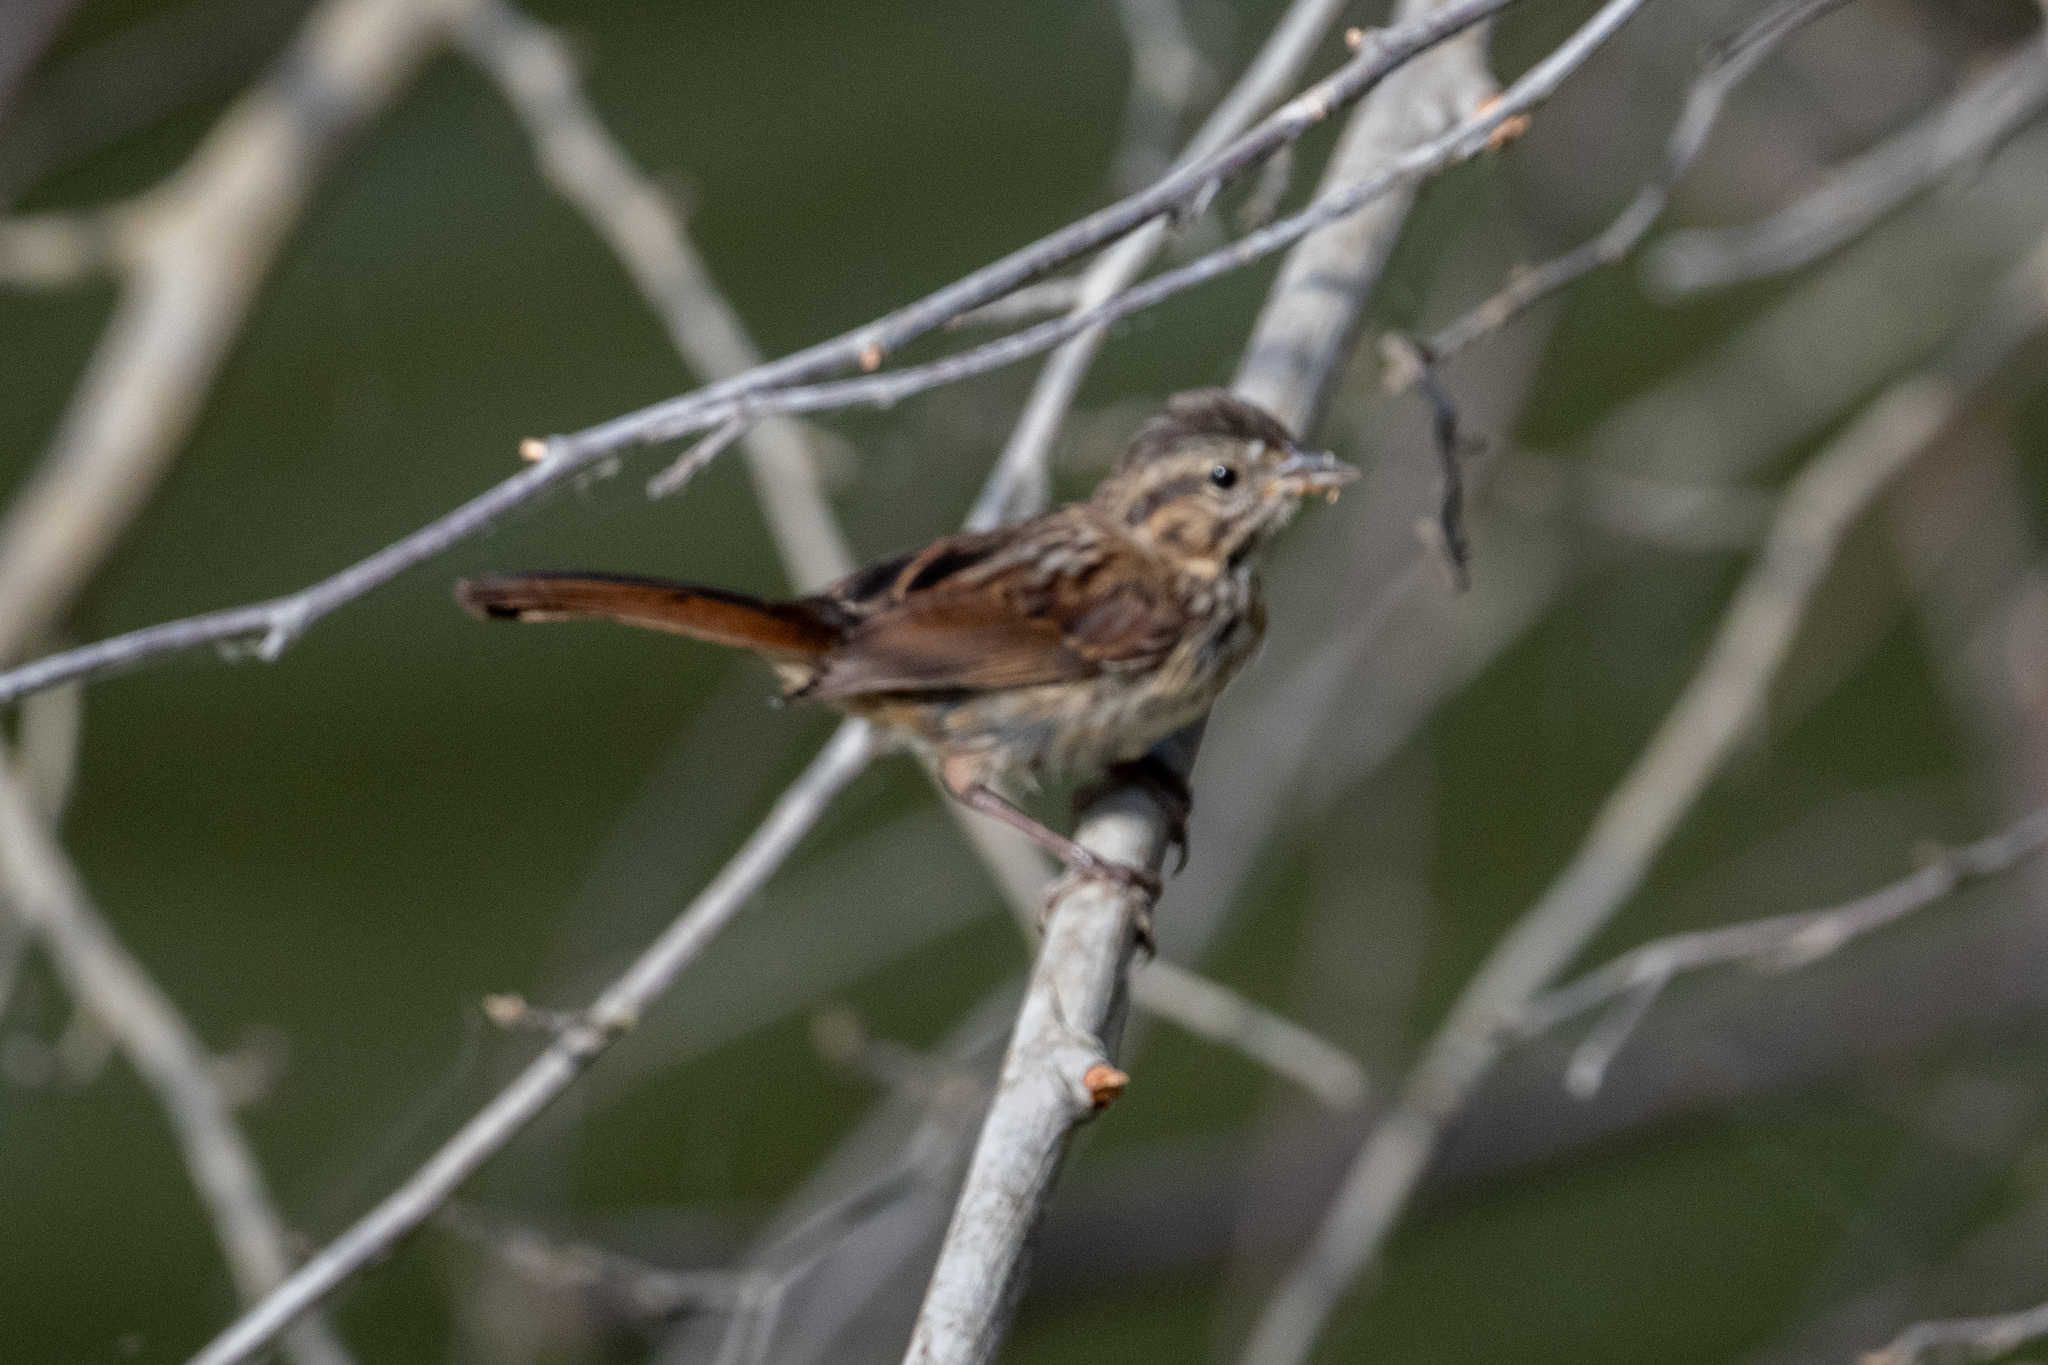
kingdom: Animalia
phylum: Chordata
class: Aves
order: Passeriformes
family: Passerellidae
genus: Melospiza
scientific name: Melospiza melodia
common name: Song sparrow
